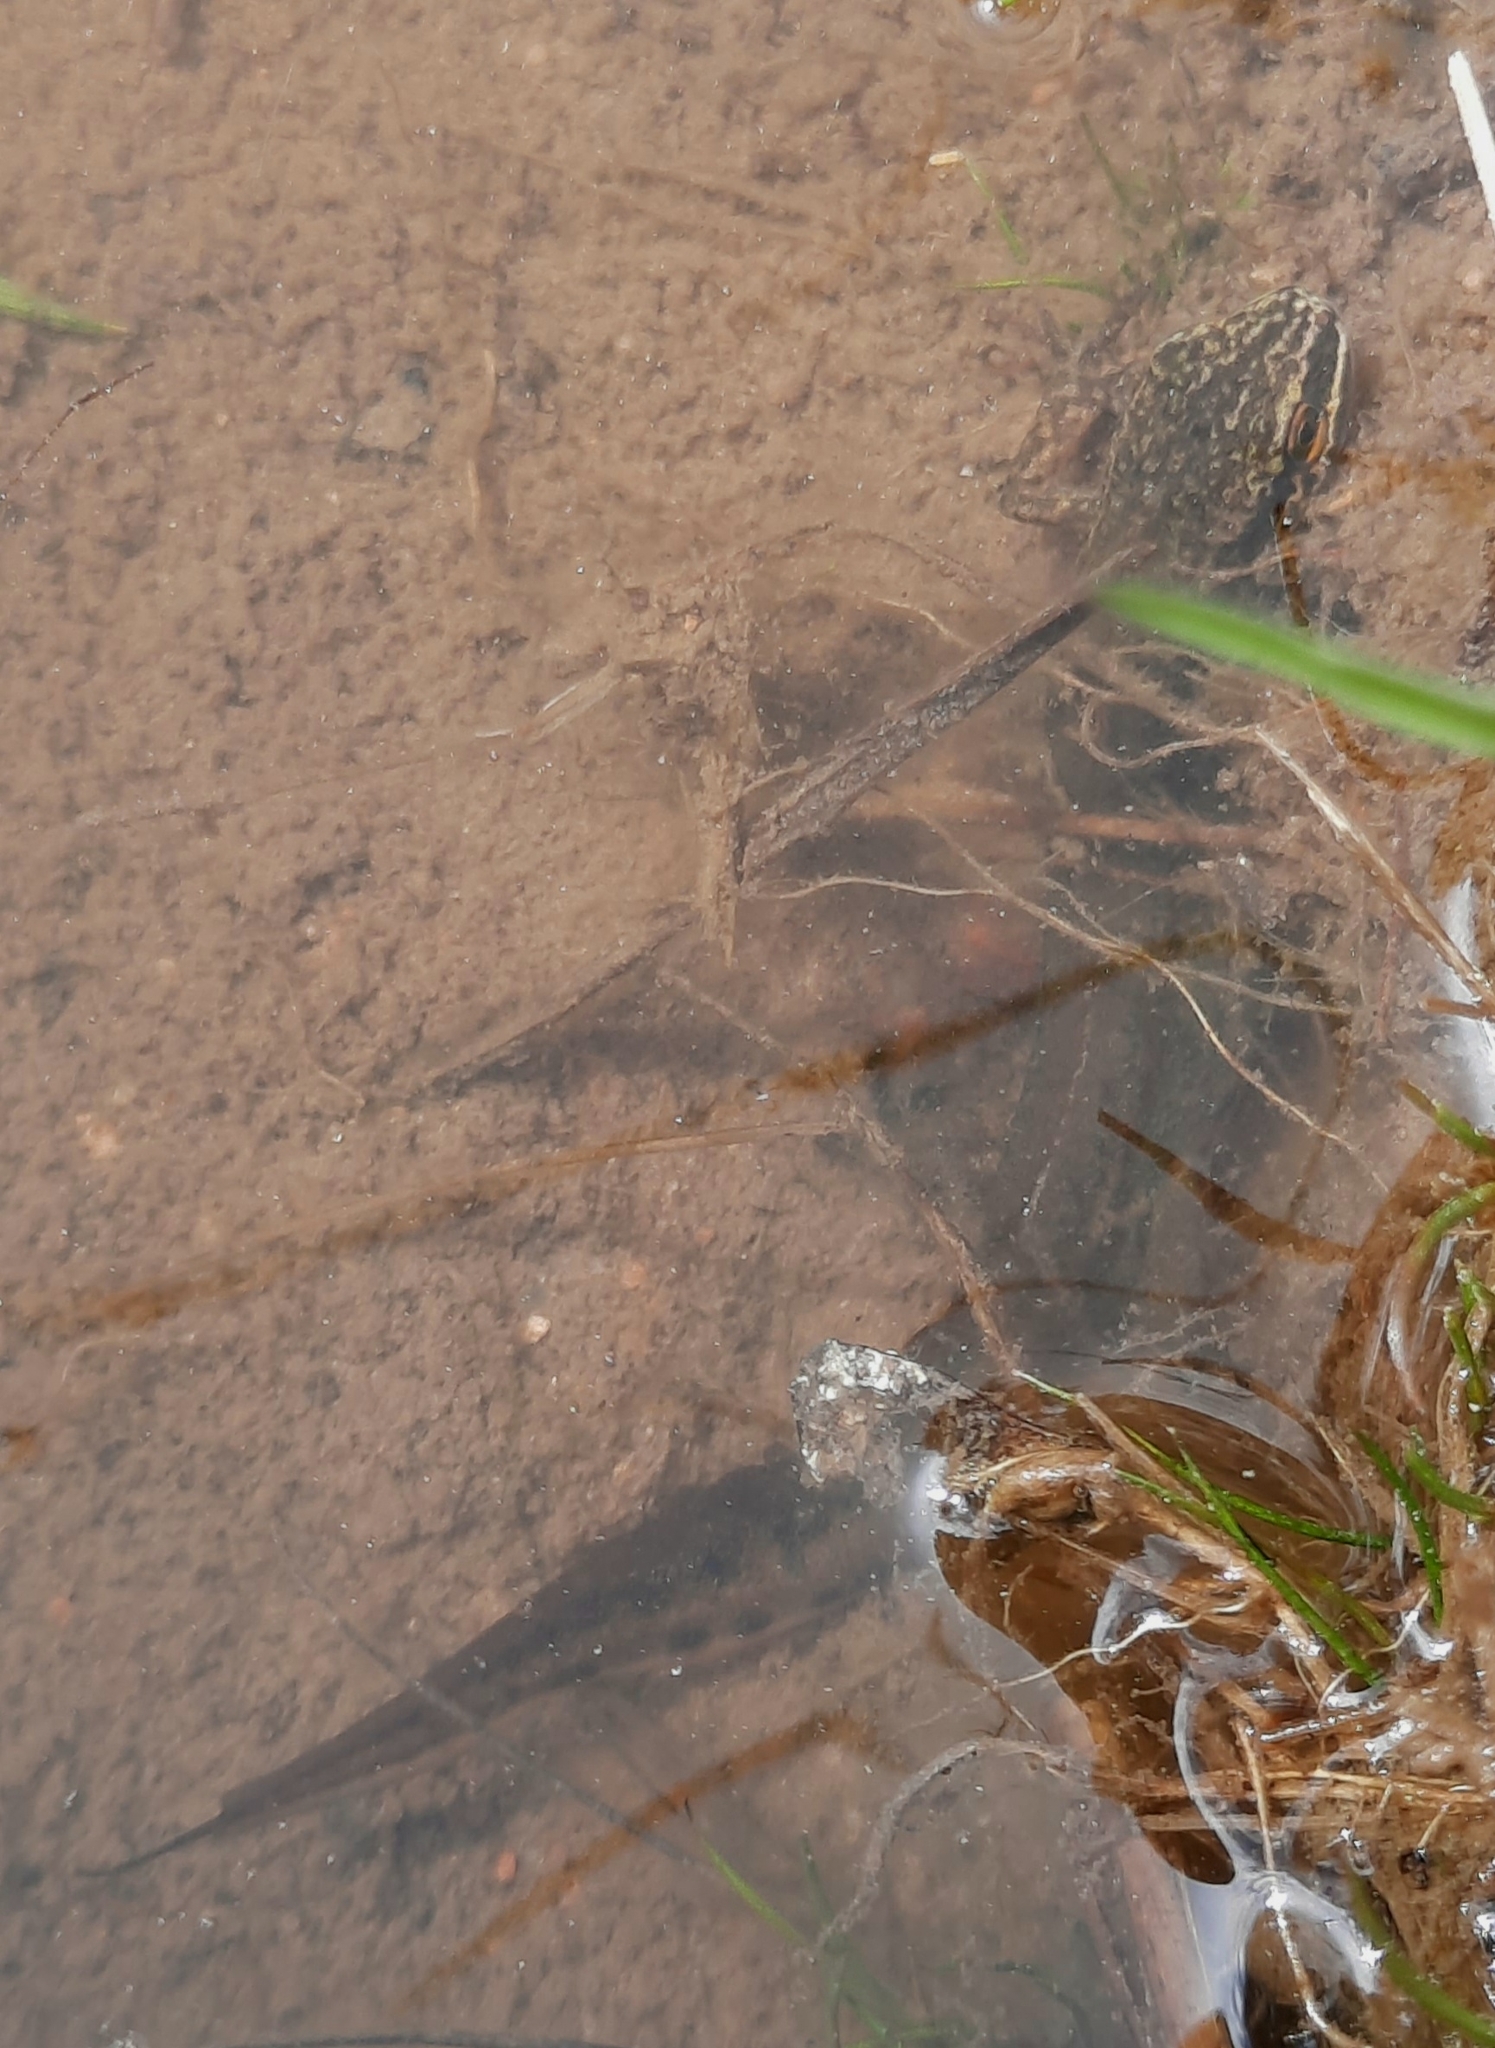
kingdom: Animalia
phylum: Chordata
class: Amphibia
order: Caudata
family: Salamandridae
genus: Lissotriton
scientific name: Lissotriton helveticus
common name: Palmate newt
